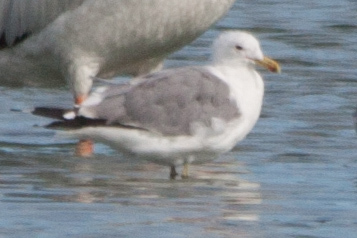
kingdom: Animalia
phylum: Chordata
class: Aves
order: Charadriiformes
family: Laridae
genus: Larus
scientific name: Larus californicus
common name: California gull
